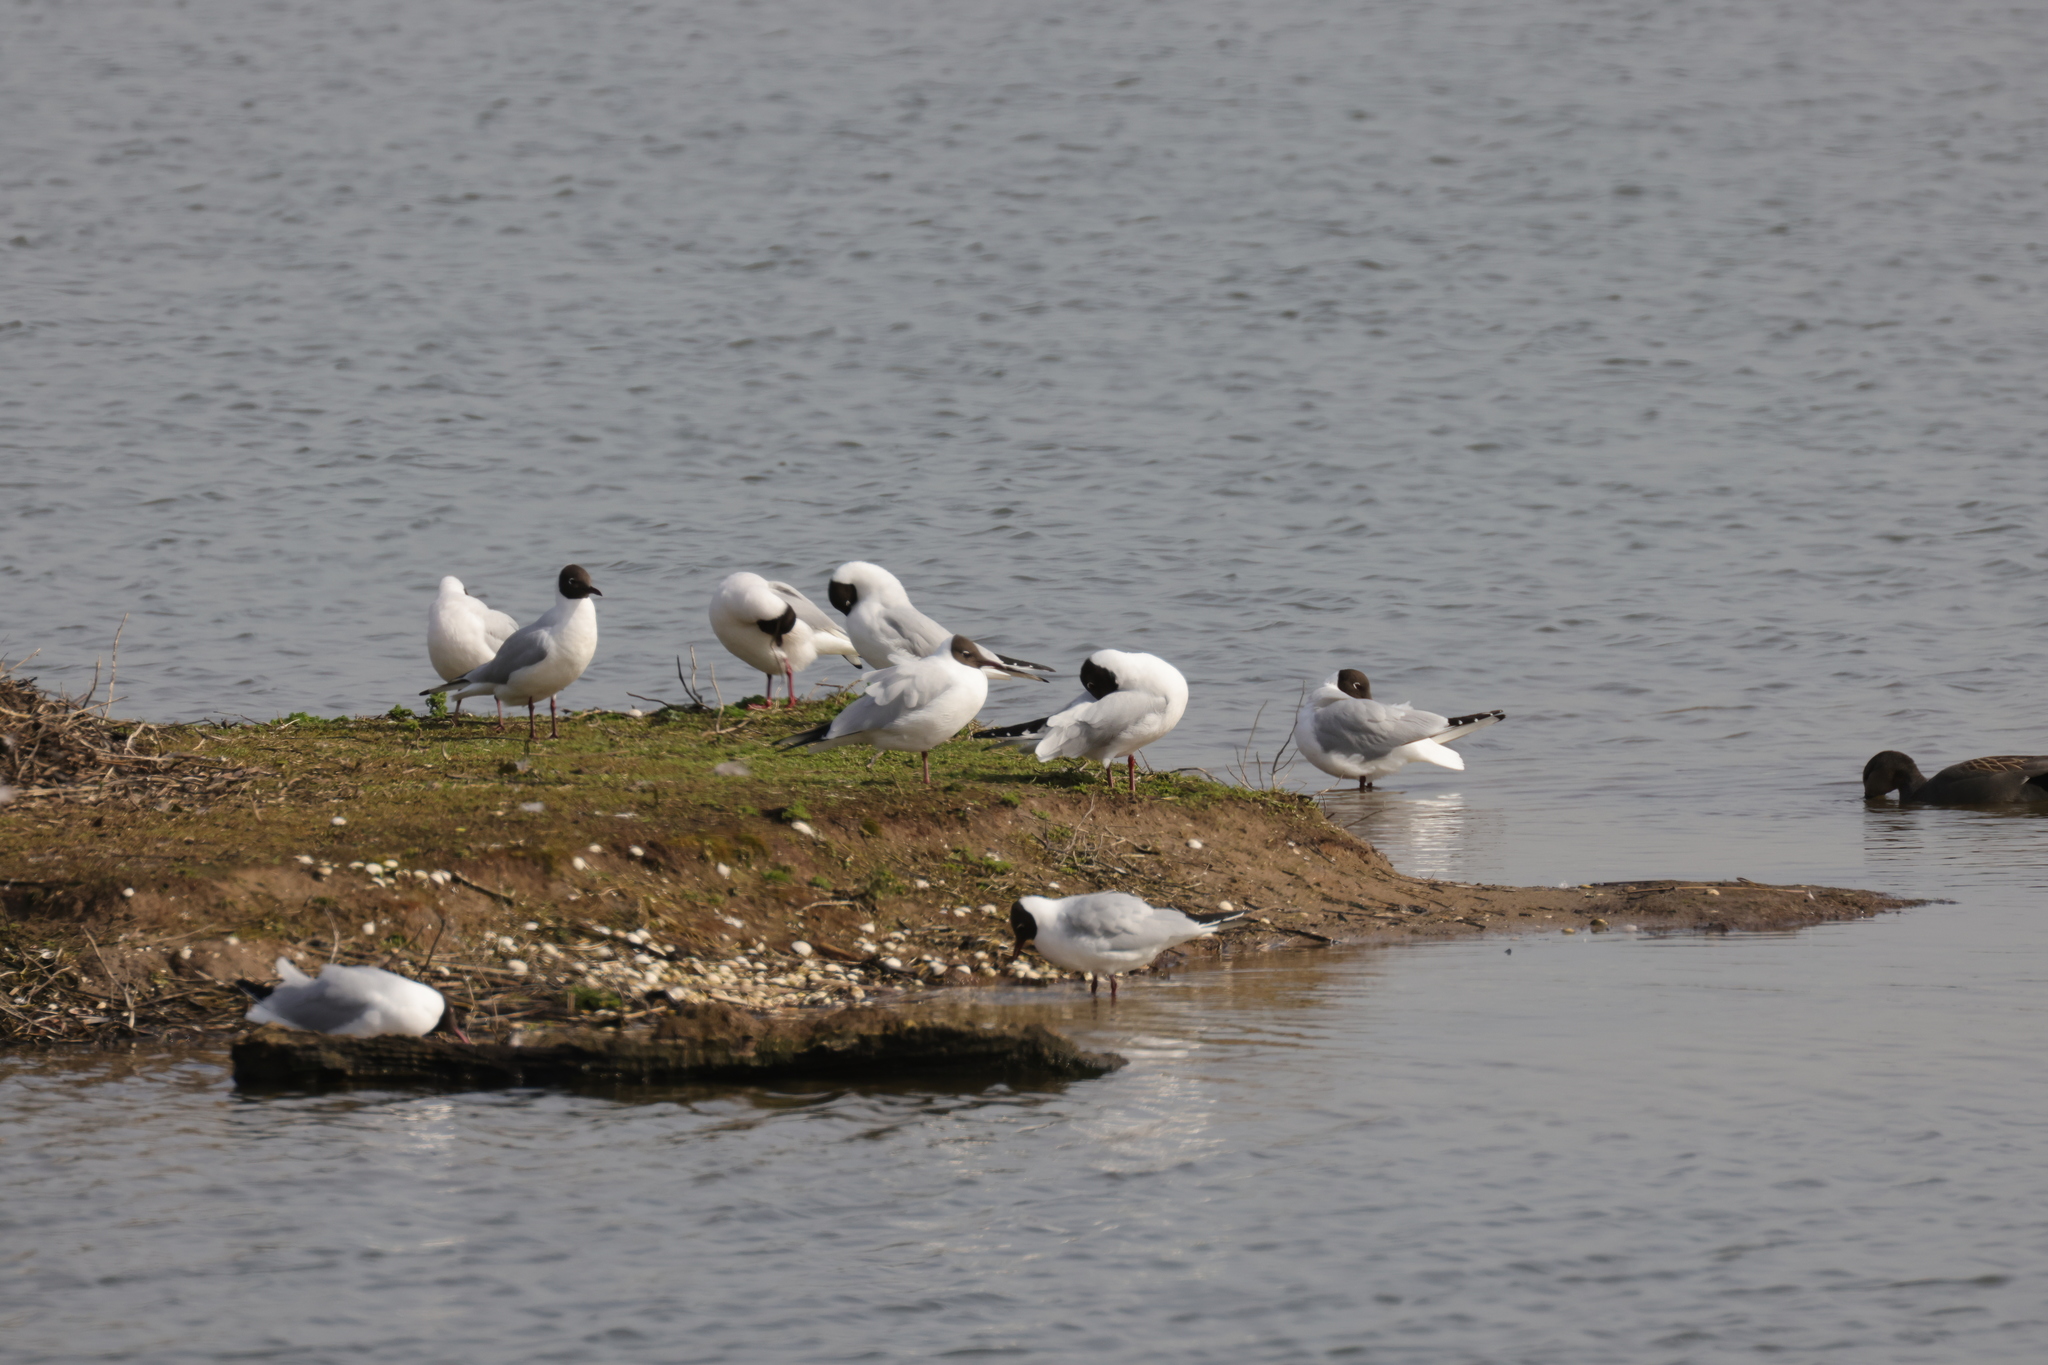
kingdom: Animalia
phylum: Chordata
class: Aves
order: Charadriiformes
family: Laridae
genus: Chroicocephalus
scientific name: Chroicocephalus ridibundus
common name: Black-headed gull
